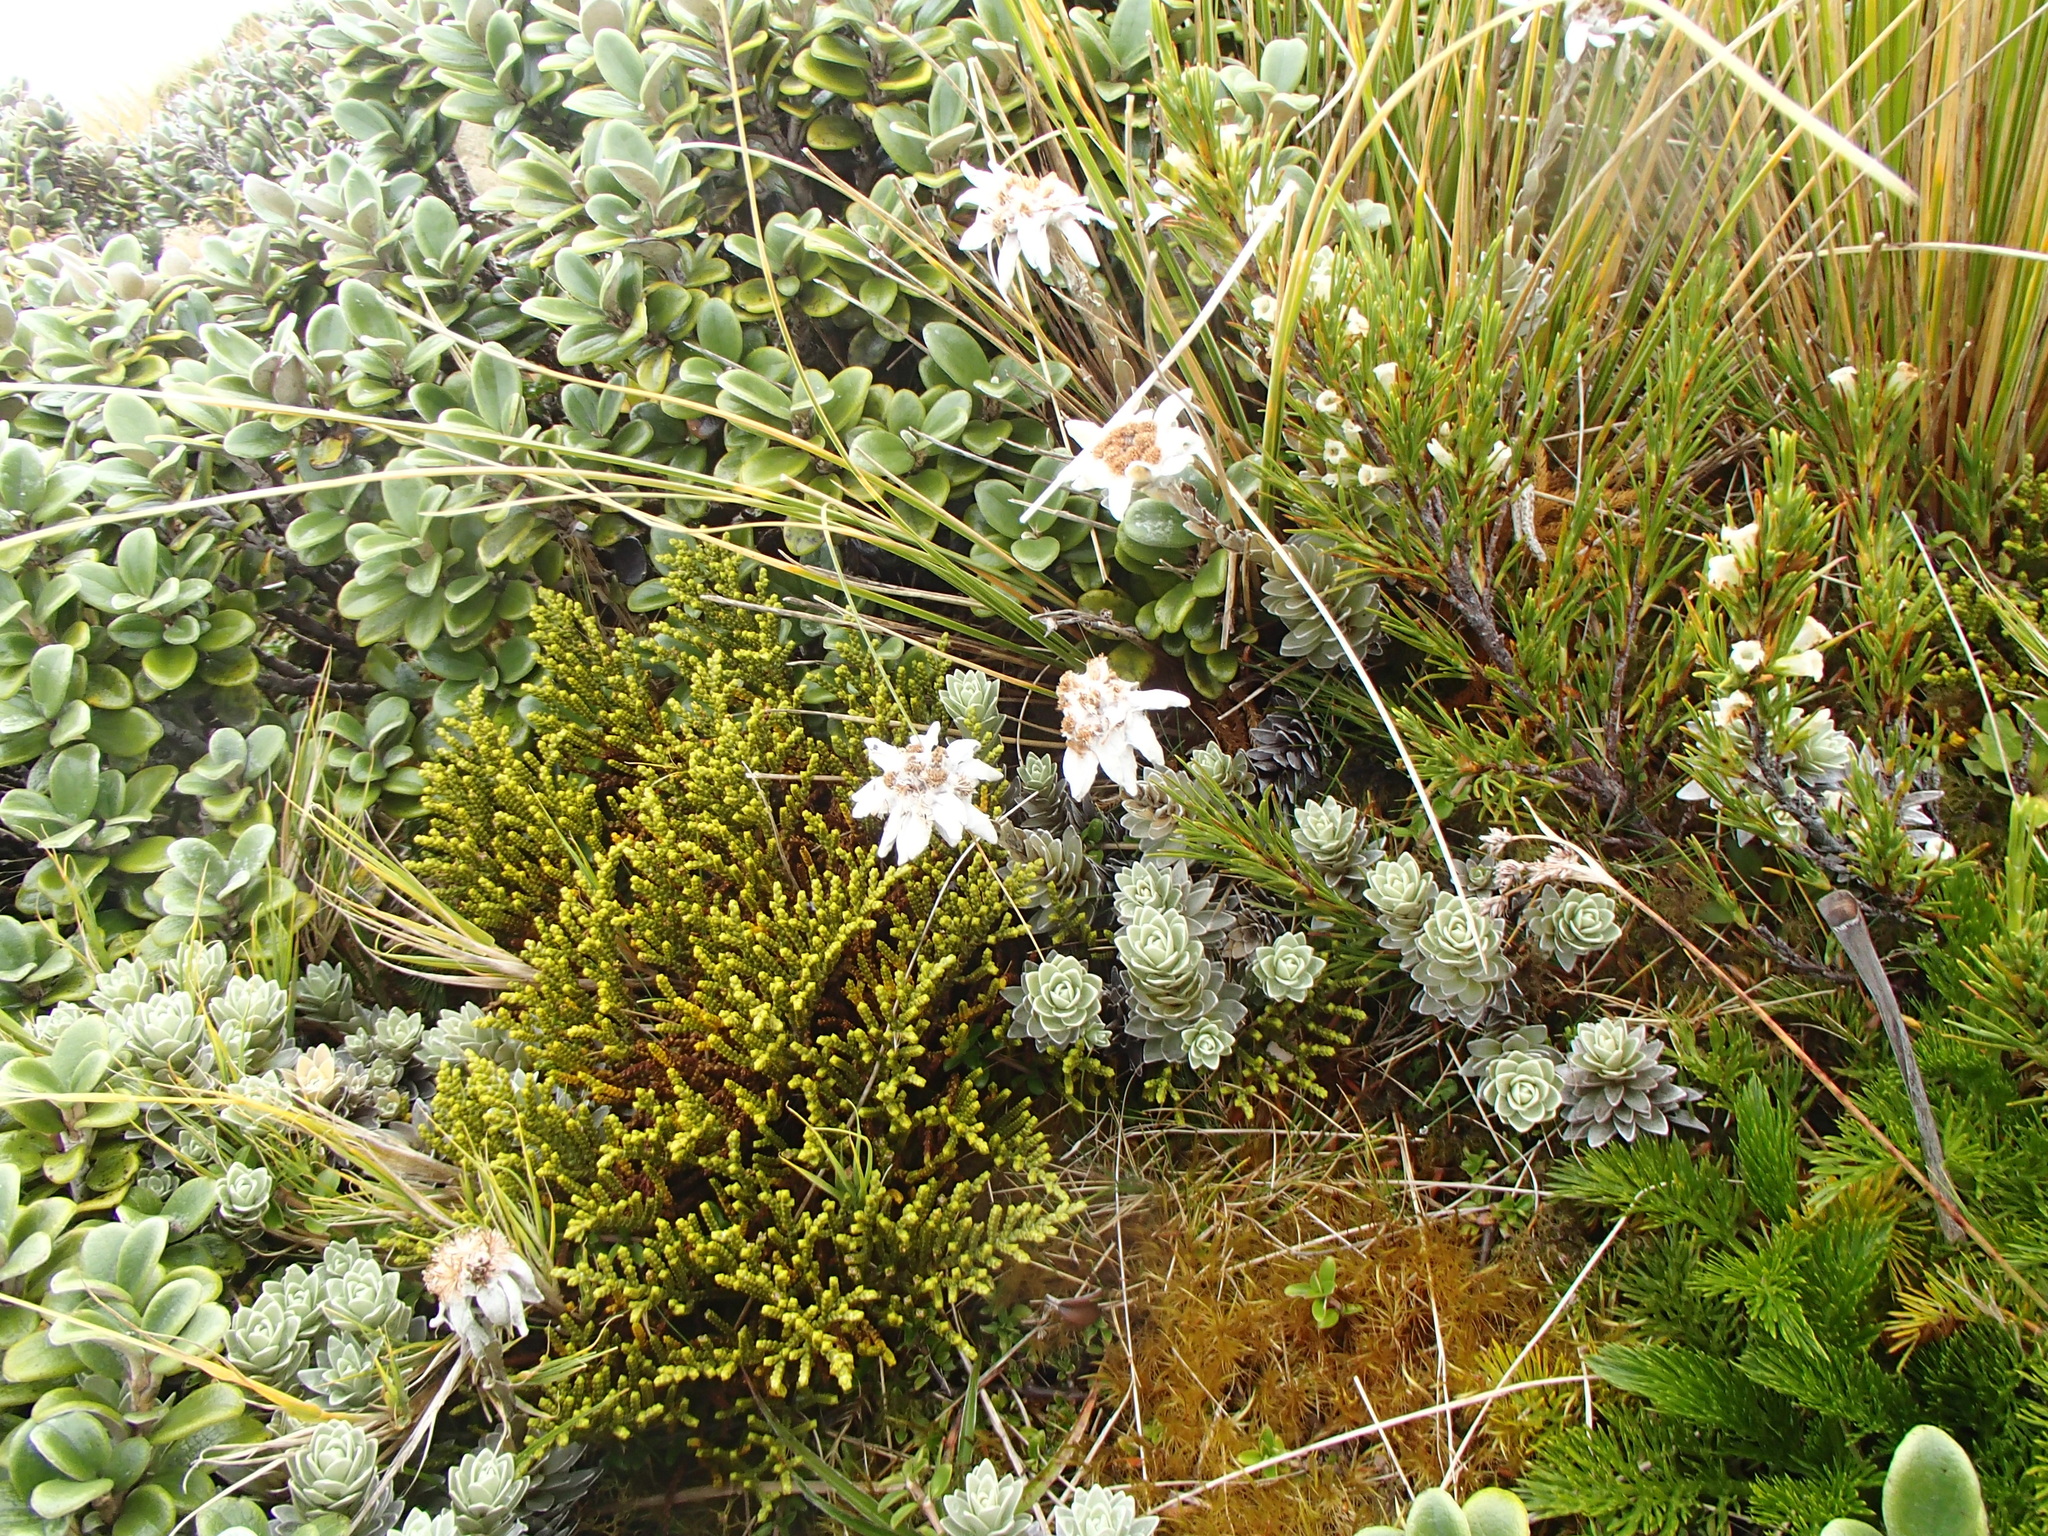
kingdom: Plantae
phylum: Tracheophyta
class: Magnoliopsida
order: Asterales
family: Asteraceae
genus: Leucogenes
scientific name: Leucogenes leontopodium
